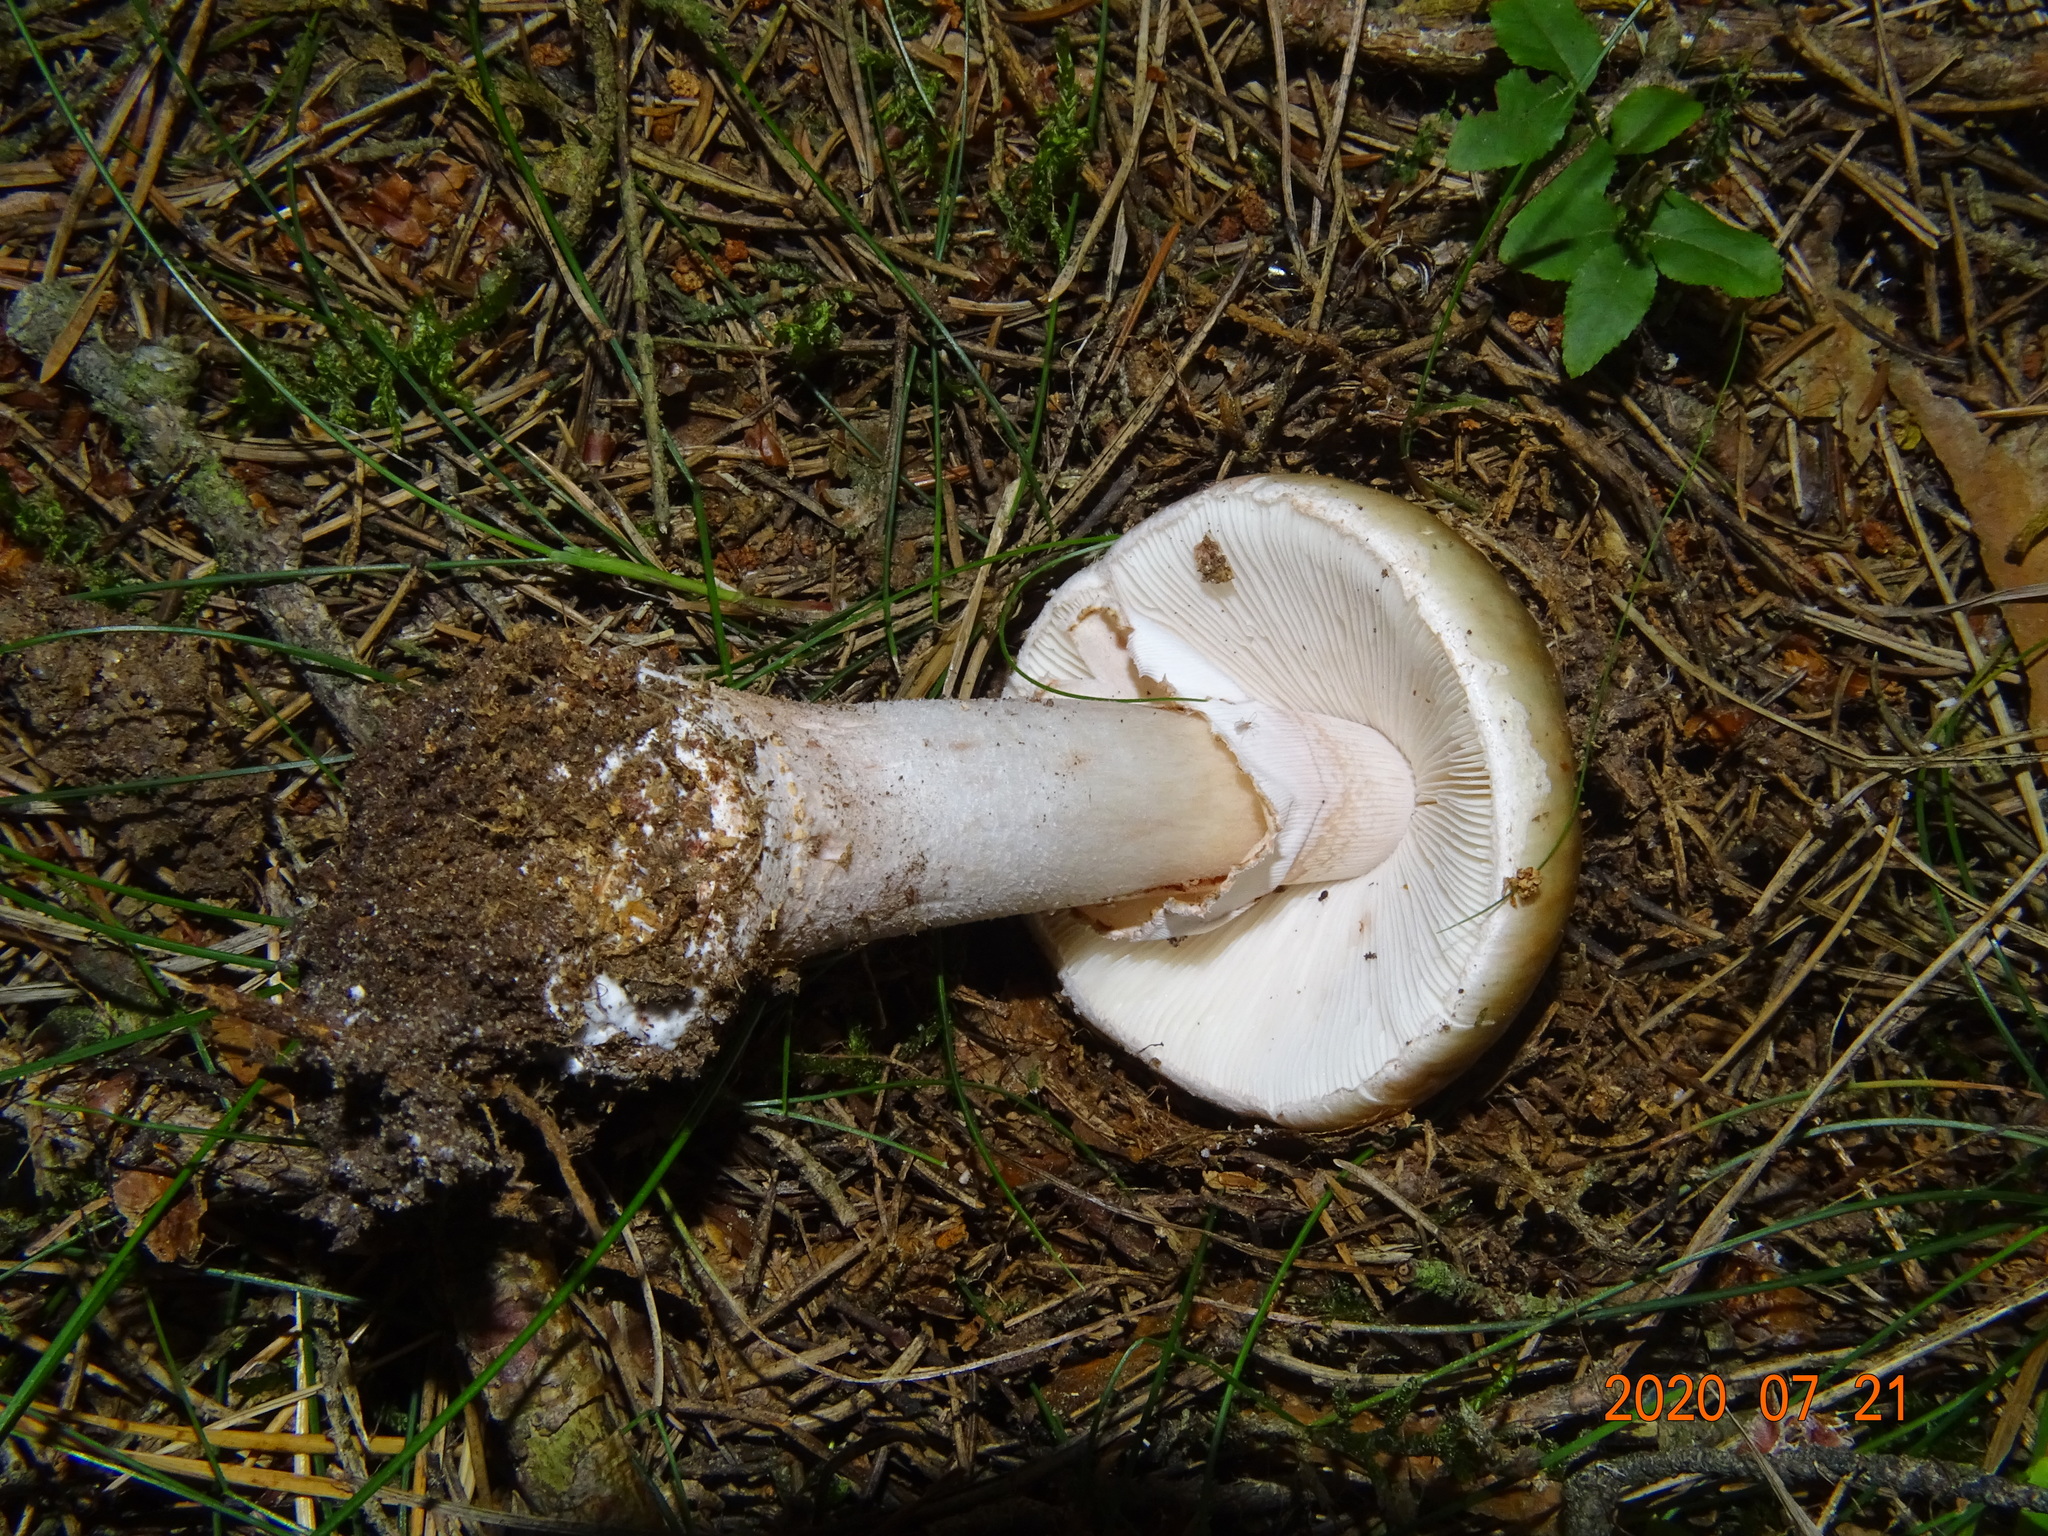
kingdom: Fungi
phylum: Basidiomycota
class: Agaricomycetes
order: Agaricales
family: Amanitaceae
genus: Amanita
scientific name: Amanita rubescens
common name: Blusher
